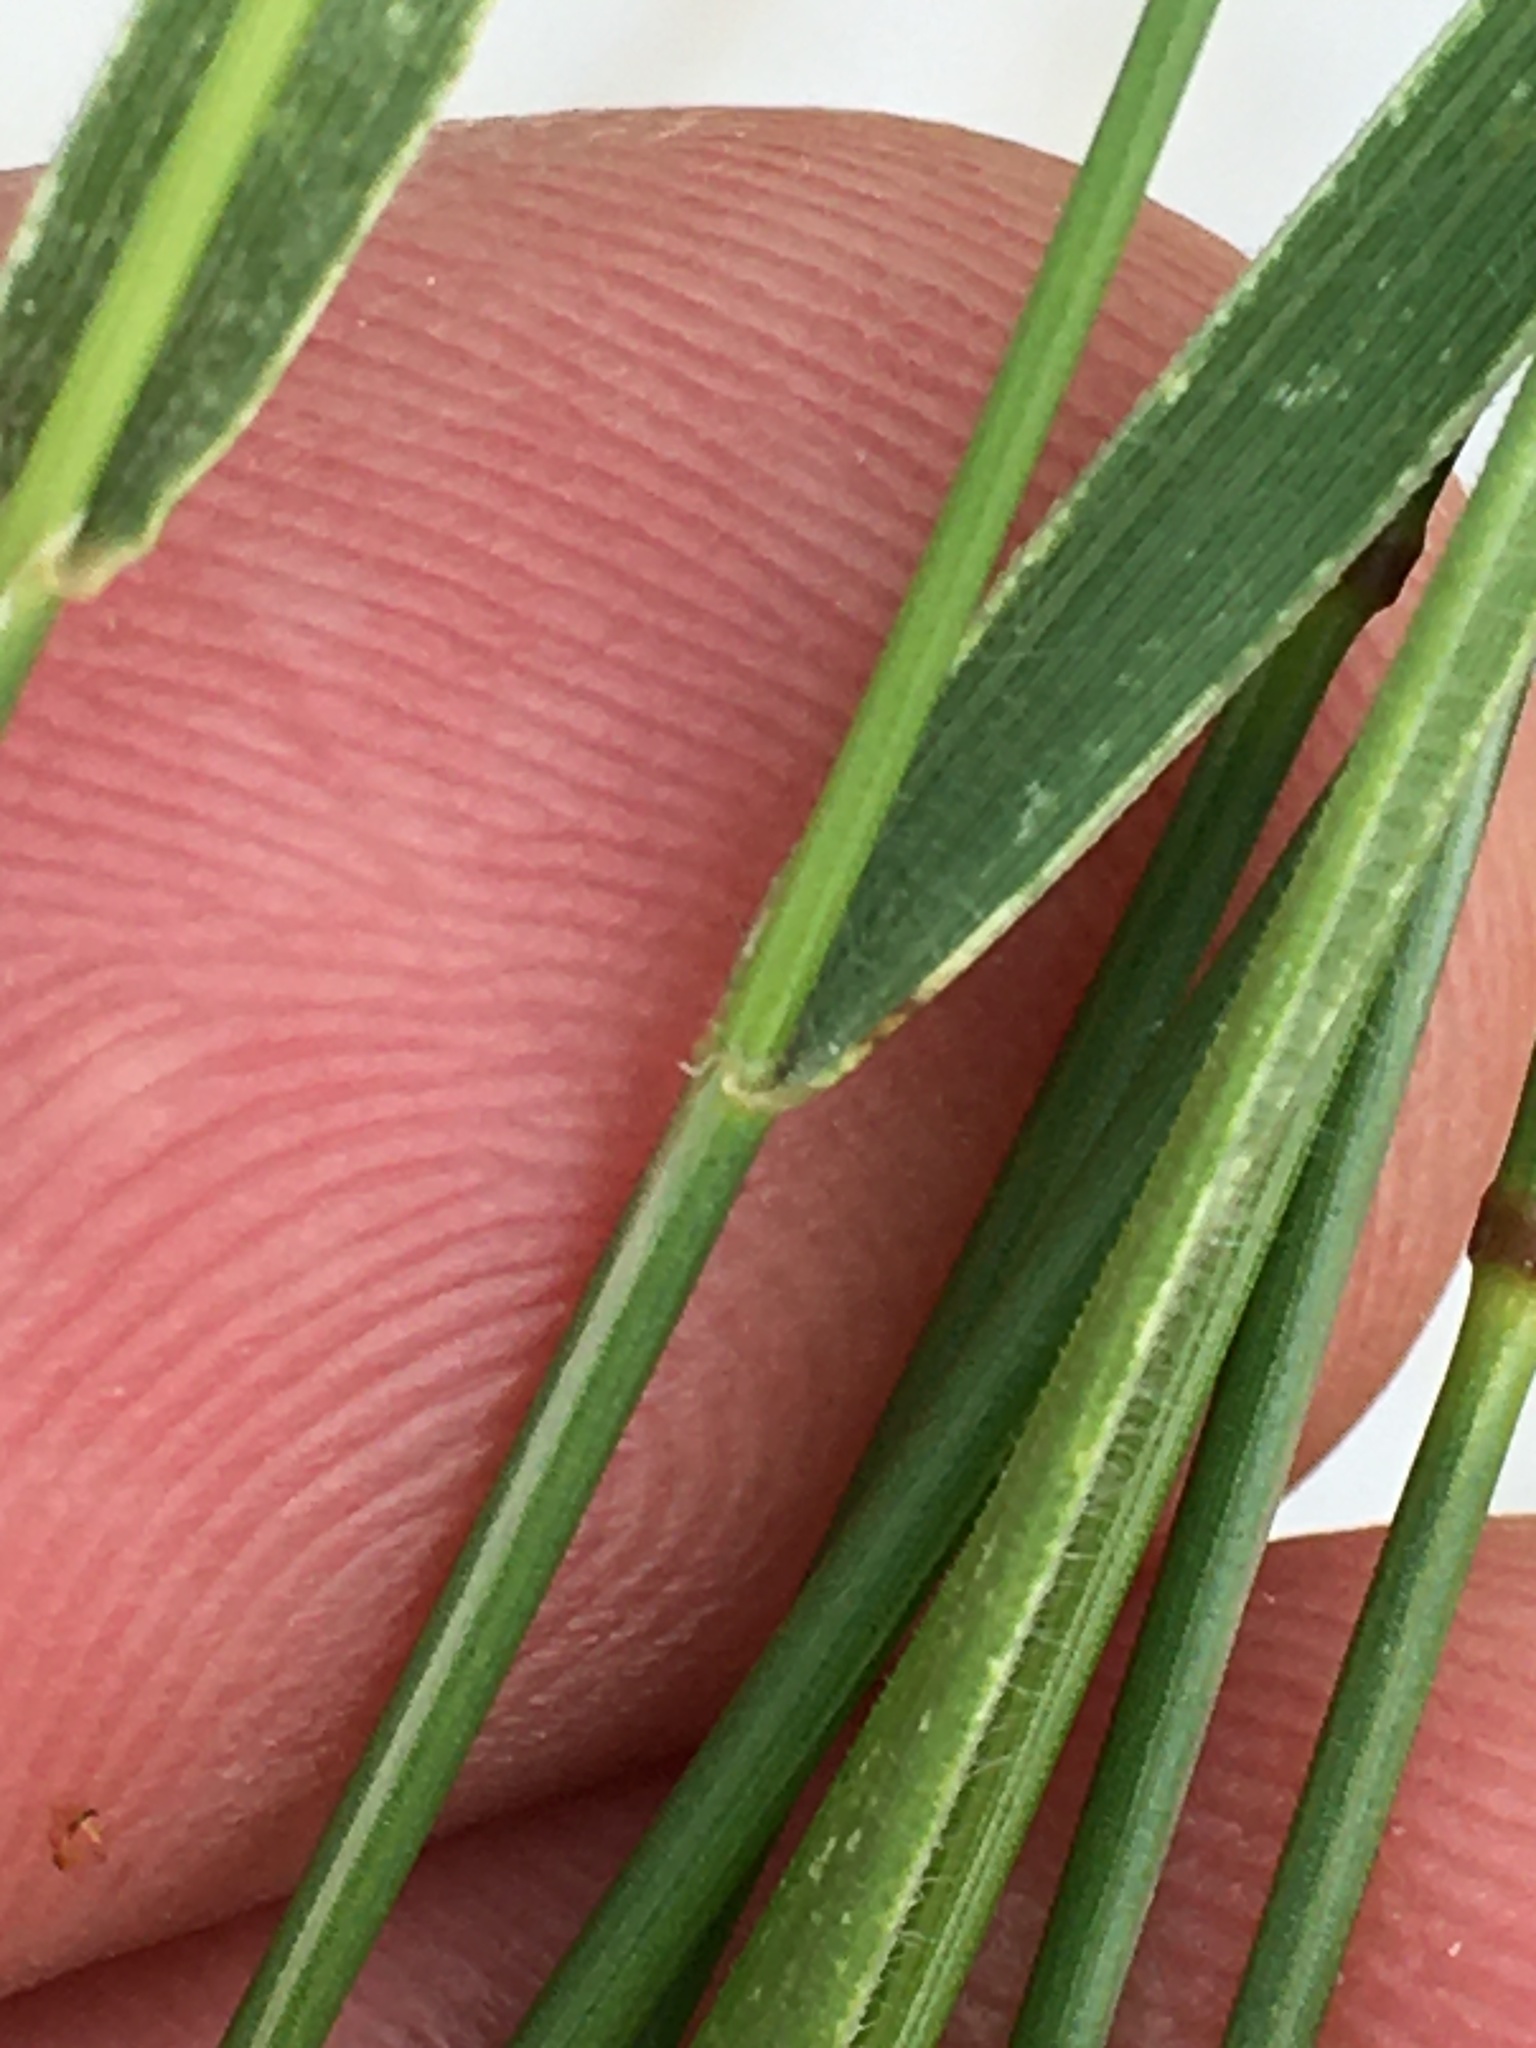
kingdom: Plantae
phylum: Tracheophyta
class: Liliopsida
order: Poales
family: Poaceae
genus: Agropyron
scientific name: Agropyron cristatum
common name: Crested wheatgrass
